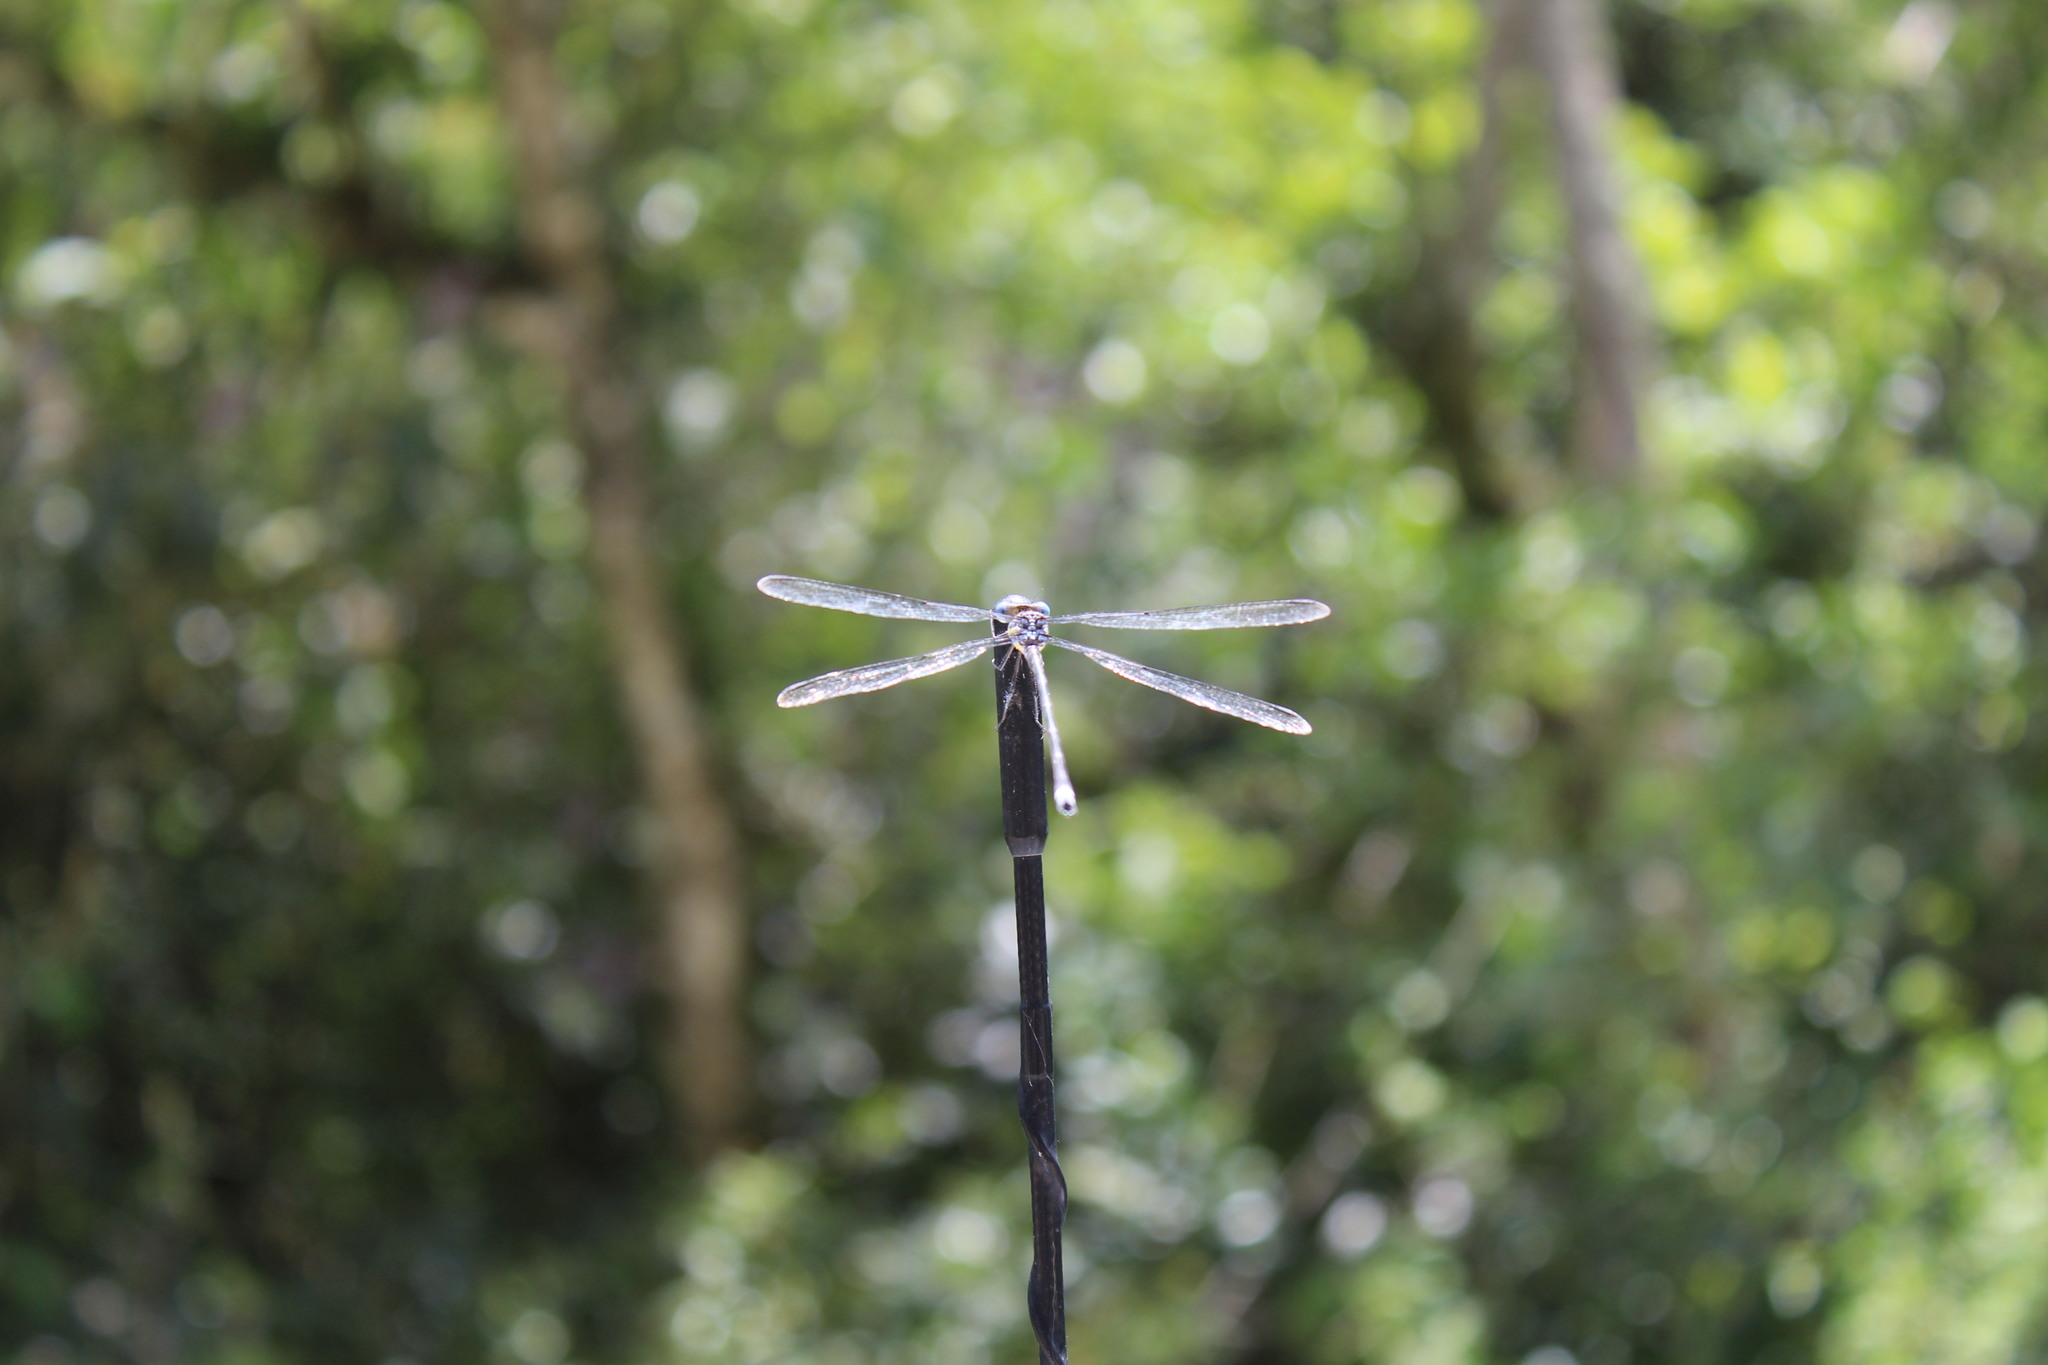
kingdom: Animalia
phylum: Arthropoda
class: Insecta
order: Odonata
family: Lestidae
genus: Archilestes
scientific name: Archilestes grandis
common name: Great spreadwing
